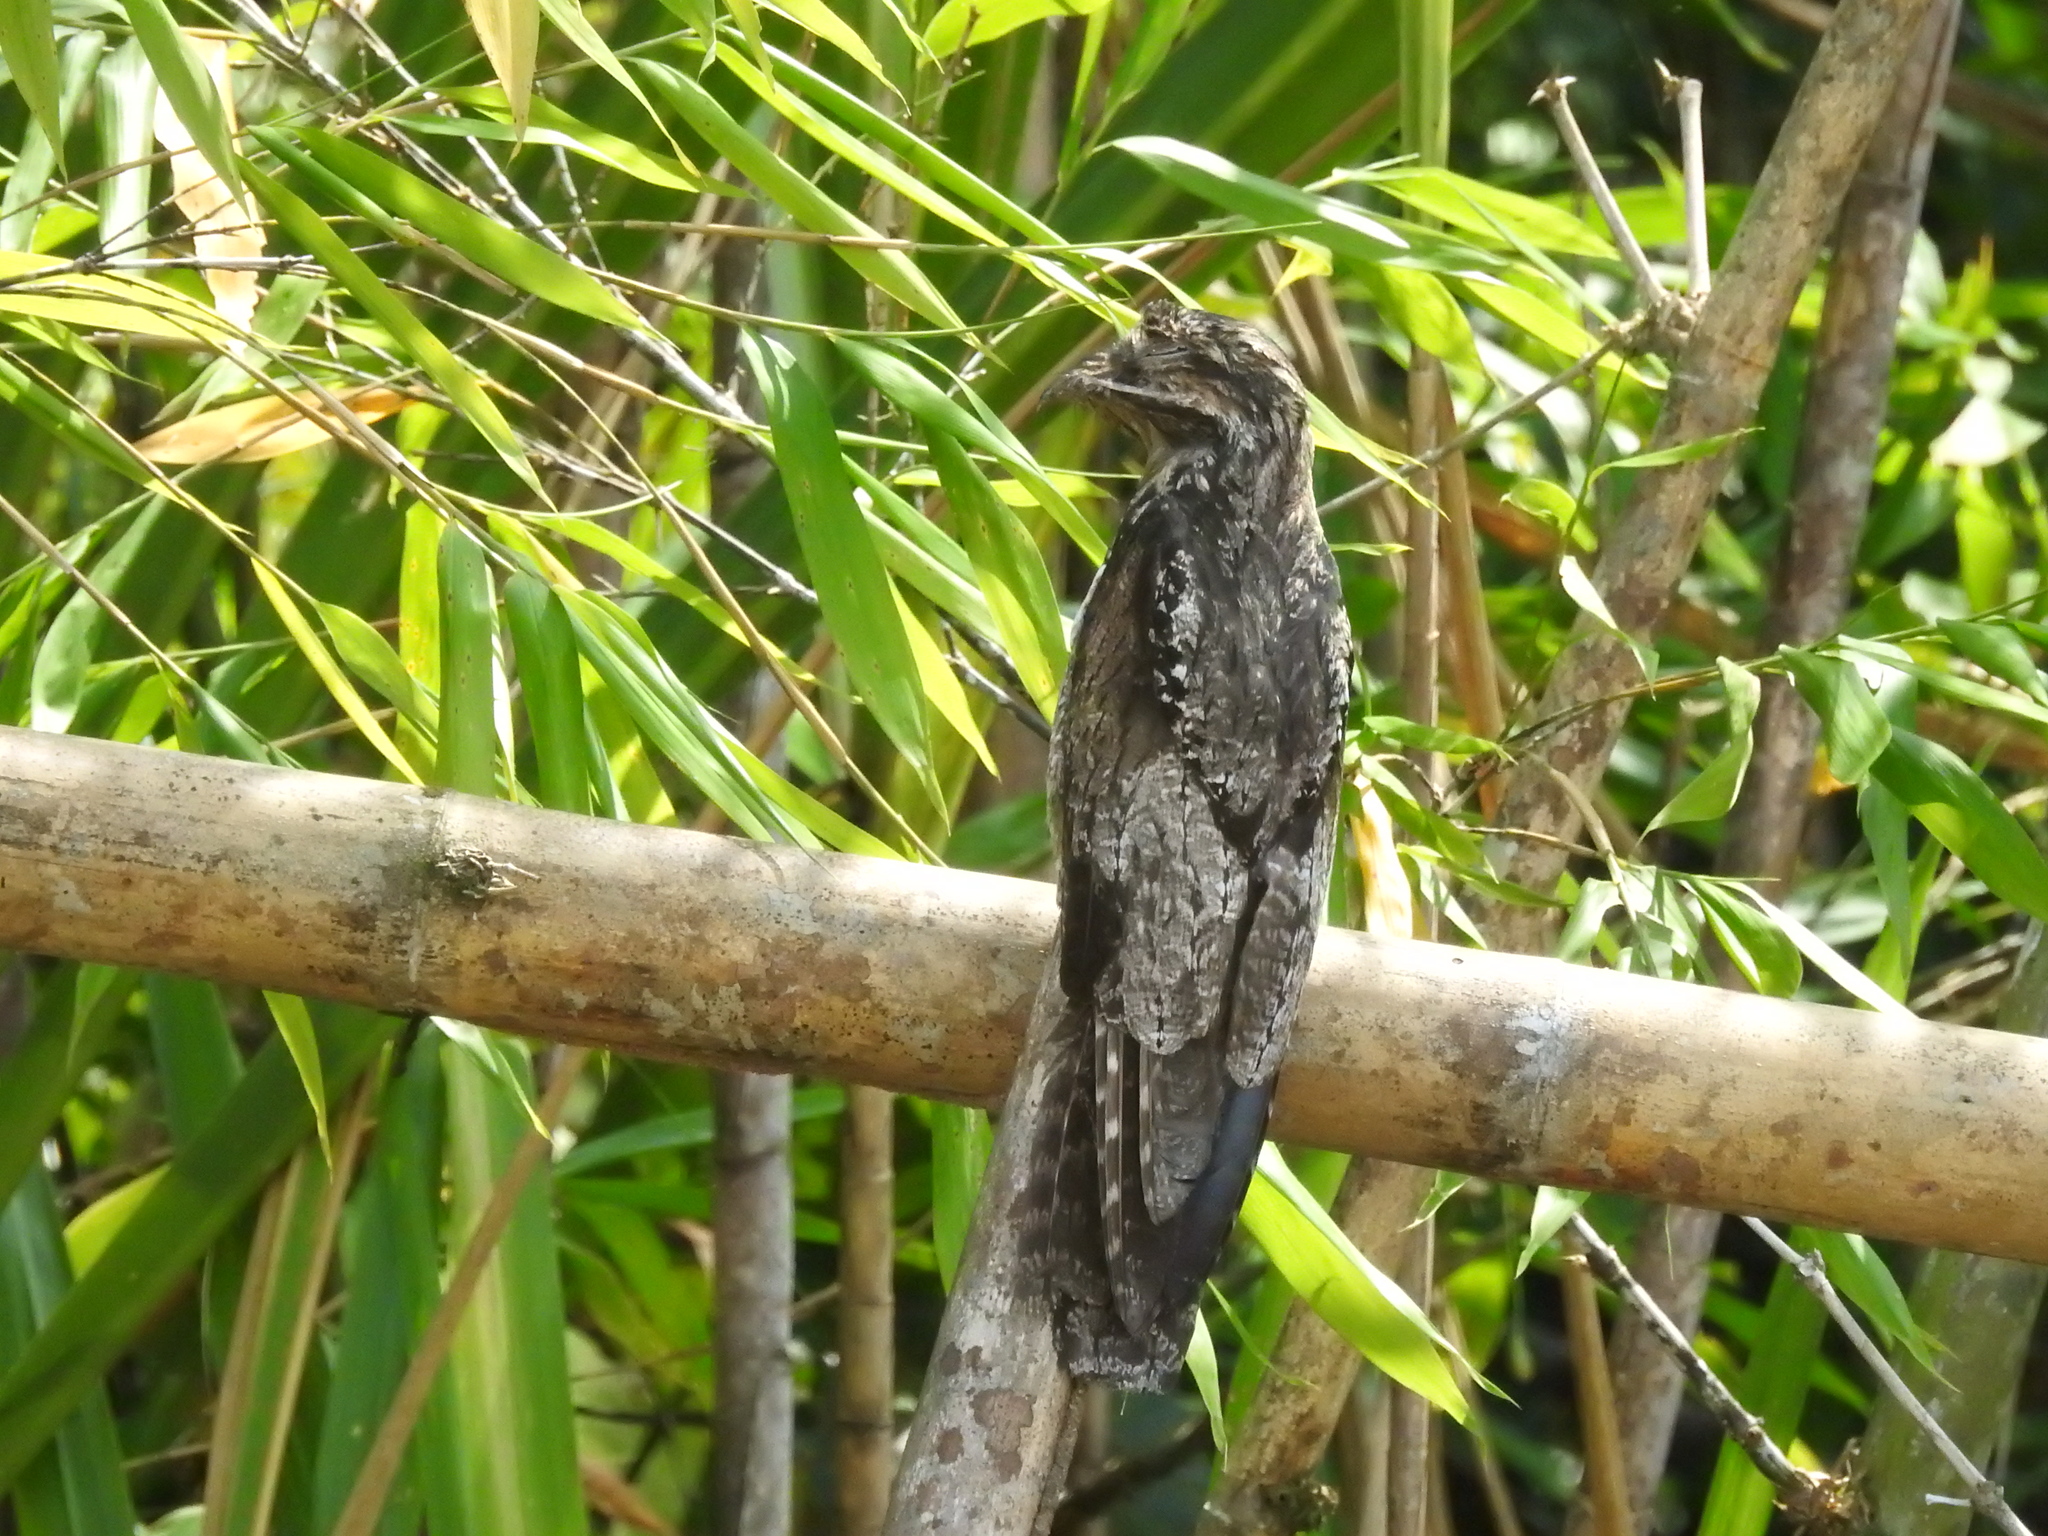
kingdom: Animalia
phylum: Chordata
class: Aves
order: Nyctibiiformes
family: Nyctibiidae
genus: Nyctibius
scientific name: Nyctibius griseus
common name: Common potoo
